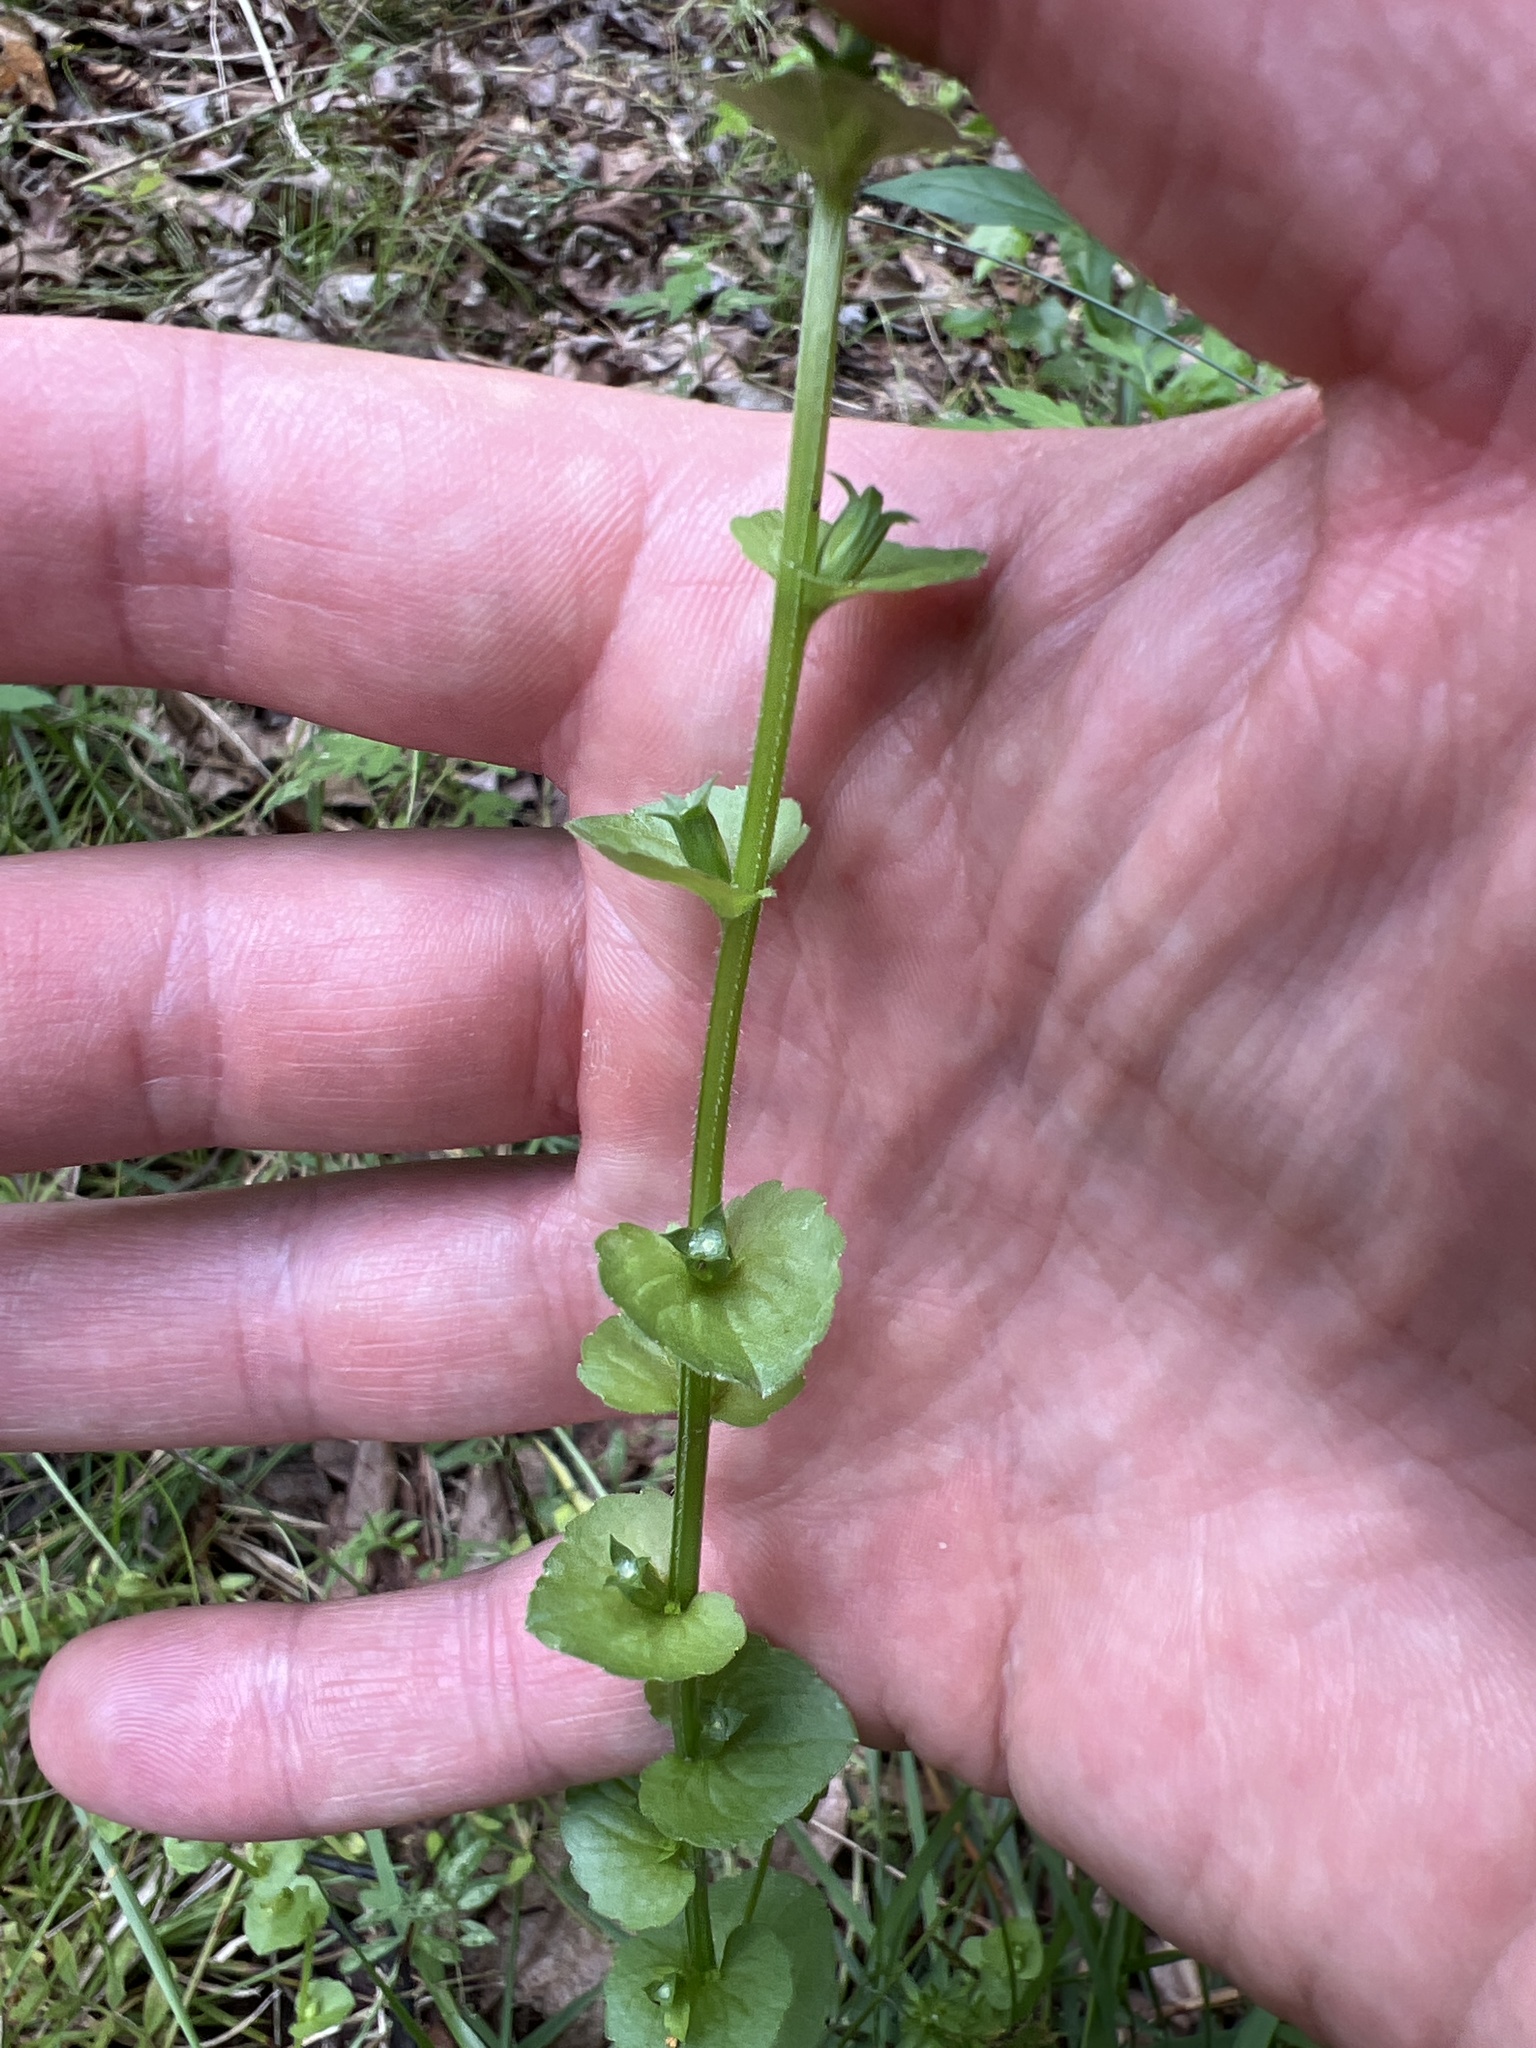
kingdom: Plantae
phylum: Tracheophyta
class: Magnoliopsida
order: Asterales
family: Campanulaceae
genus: Triodanis
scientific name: Triodanis perfoliata
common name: Clasping venus' looking-glass
